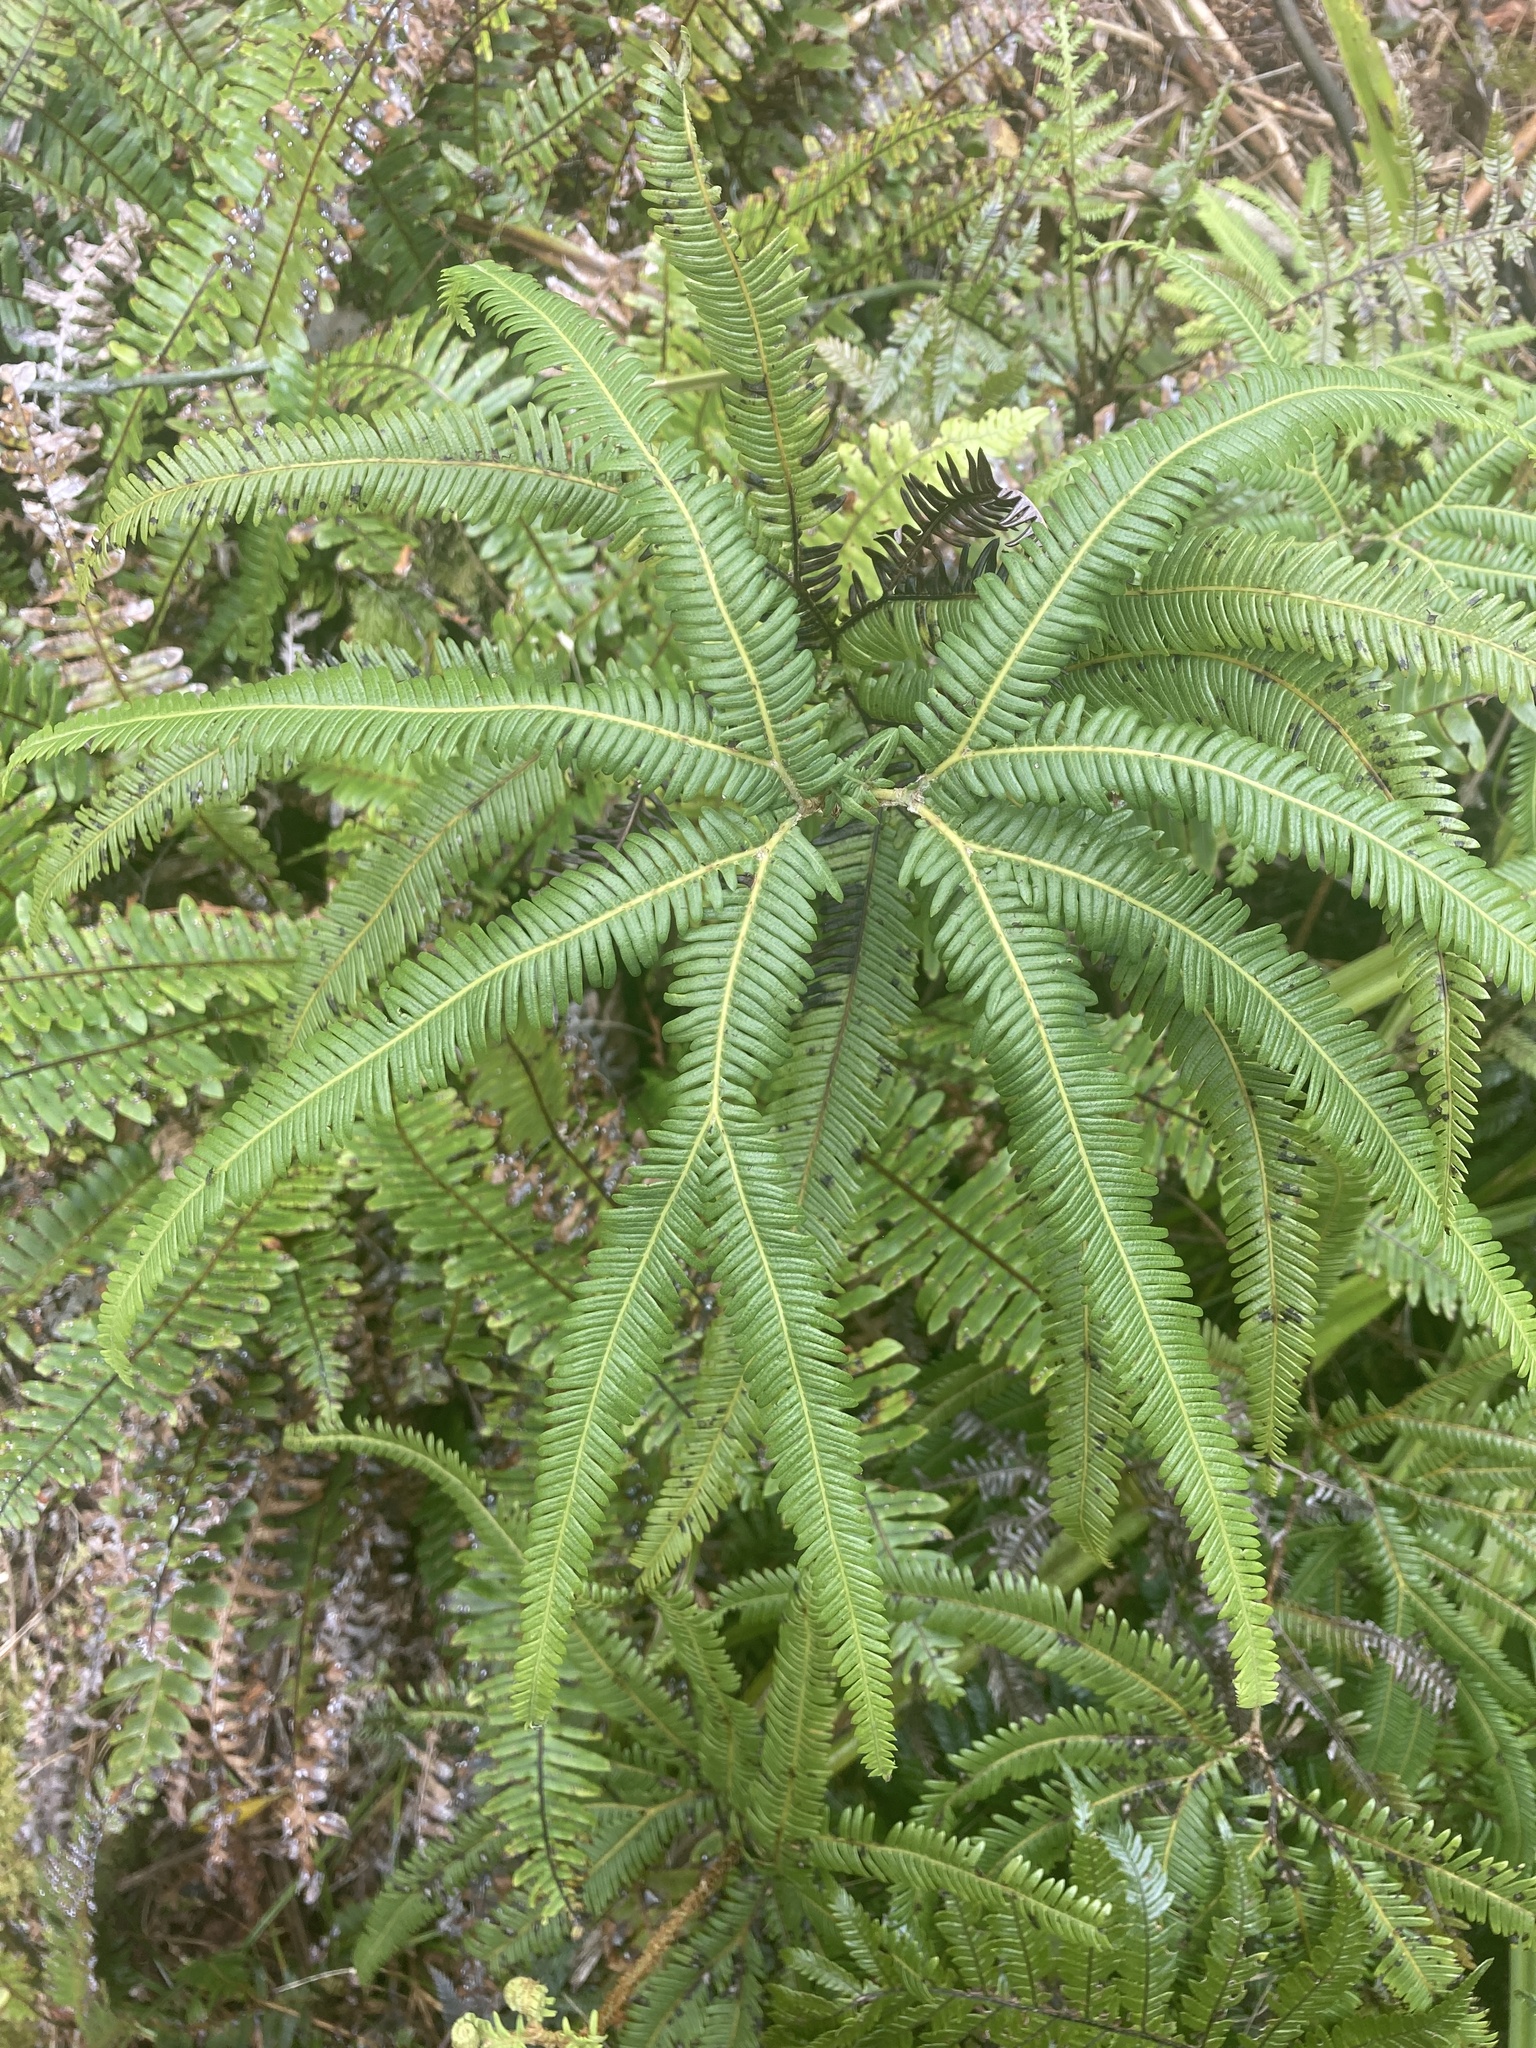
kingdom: Plantae
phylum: Tracheophyta
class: Polypodiopsida
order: Gleicheniales
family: Gleicheniaceae
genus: Sticherus
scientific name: Sticherus cunninghamii
